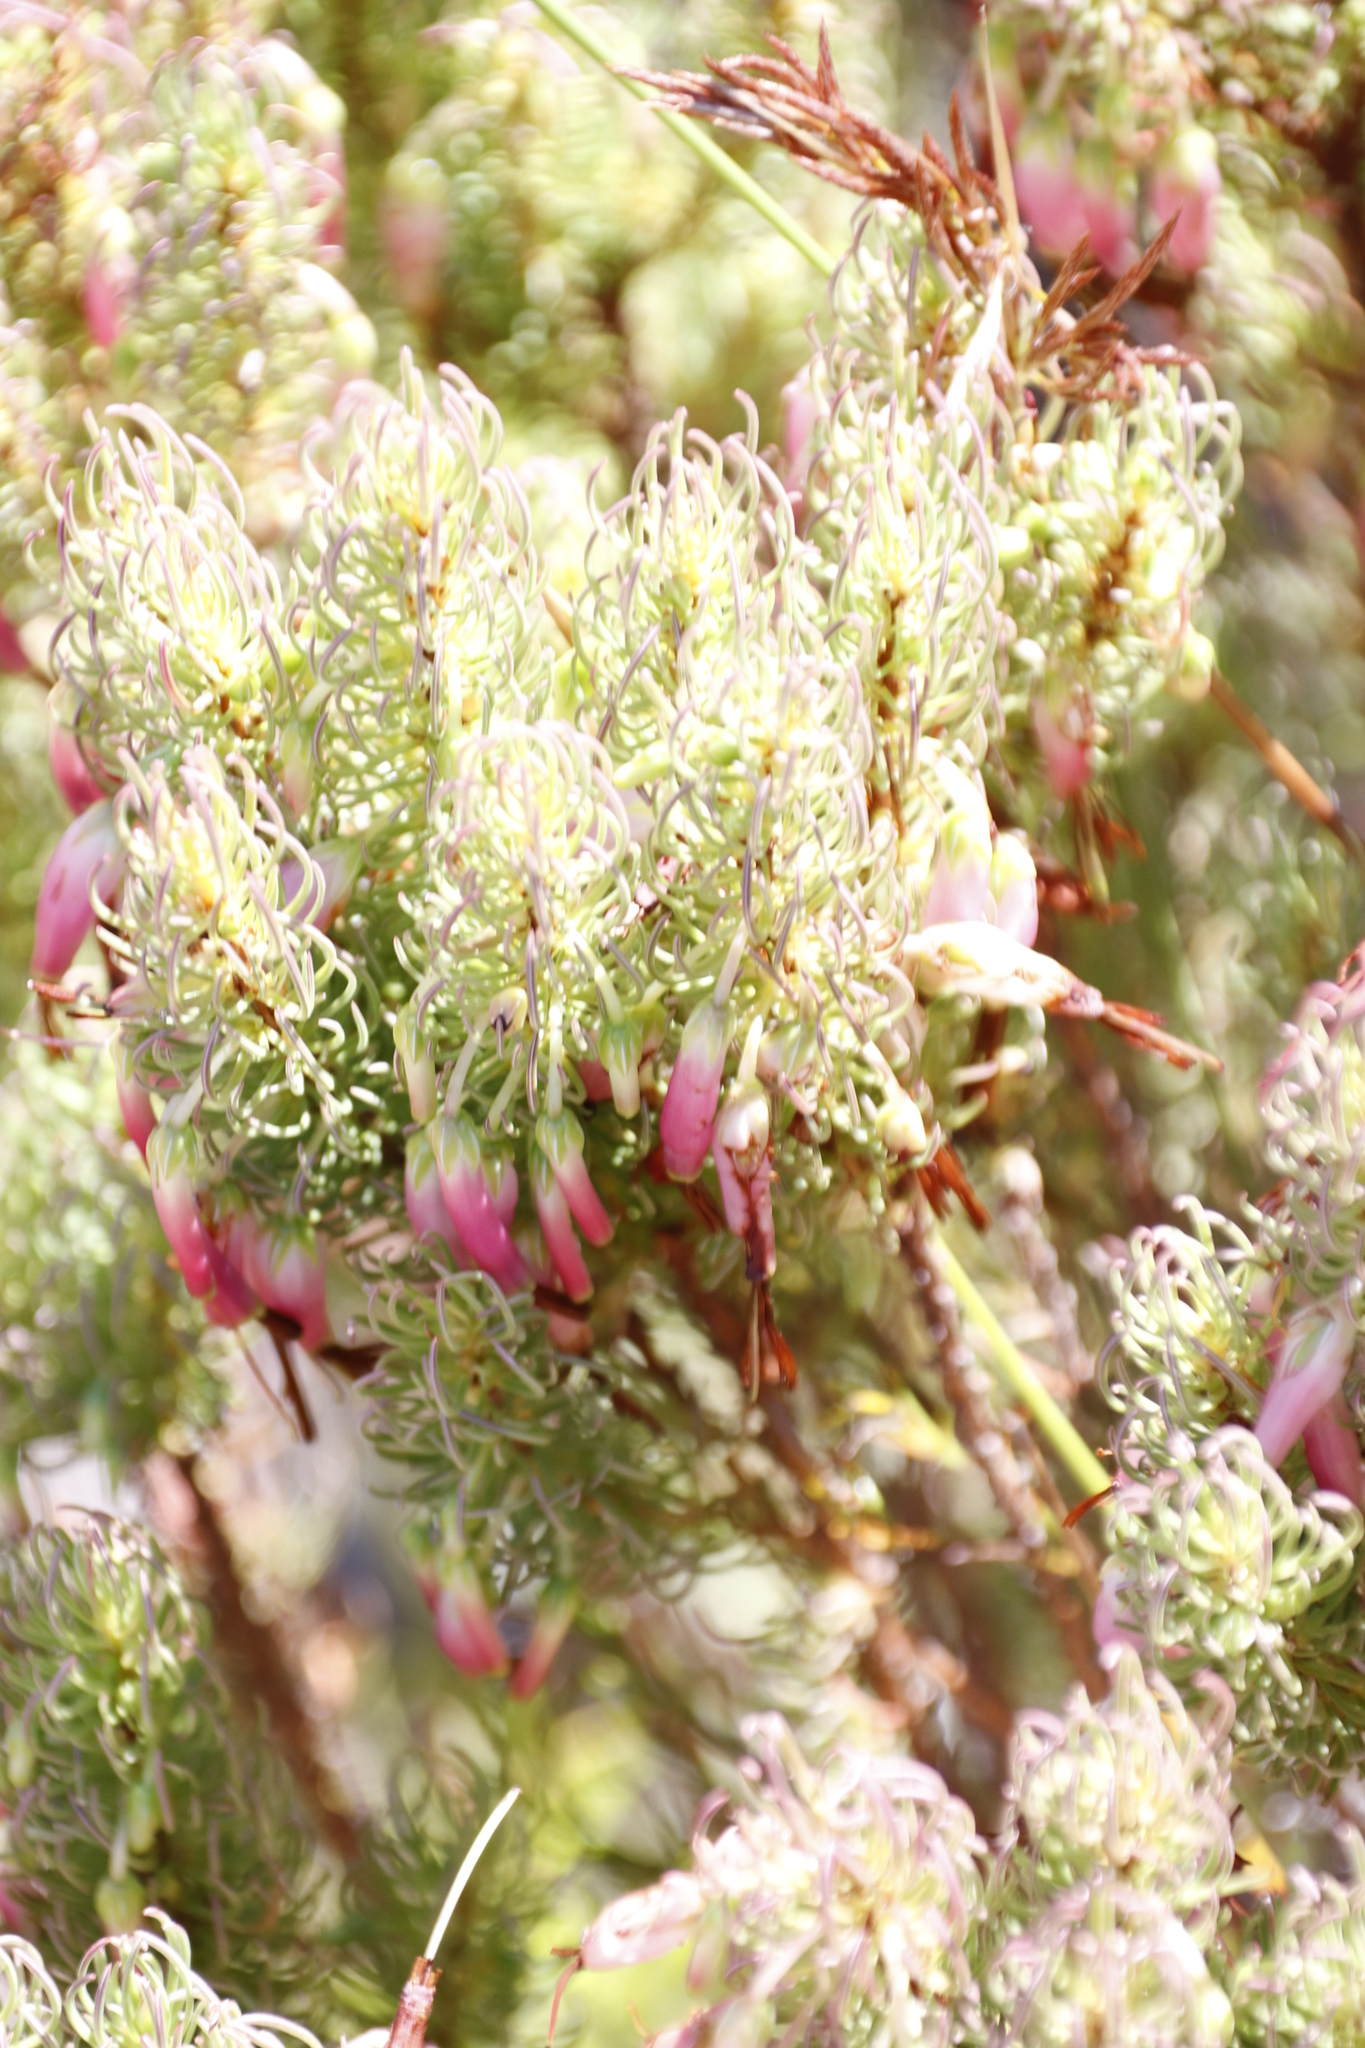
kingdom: Plantae
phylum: Tracheophyta
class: Magnoliopsida
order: Ericales
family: Ericaceae
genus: Erica
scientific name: Erica plukenetii
